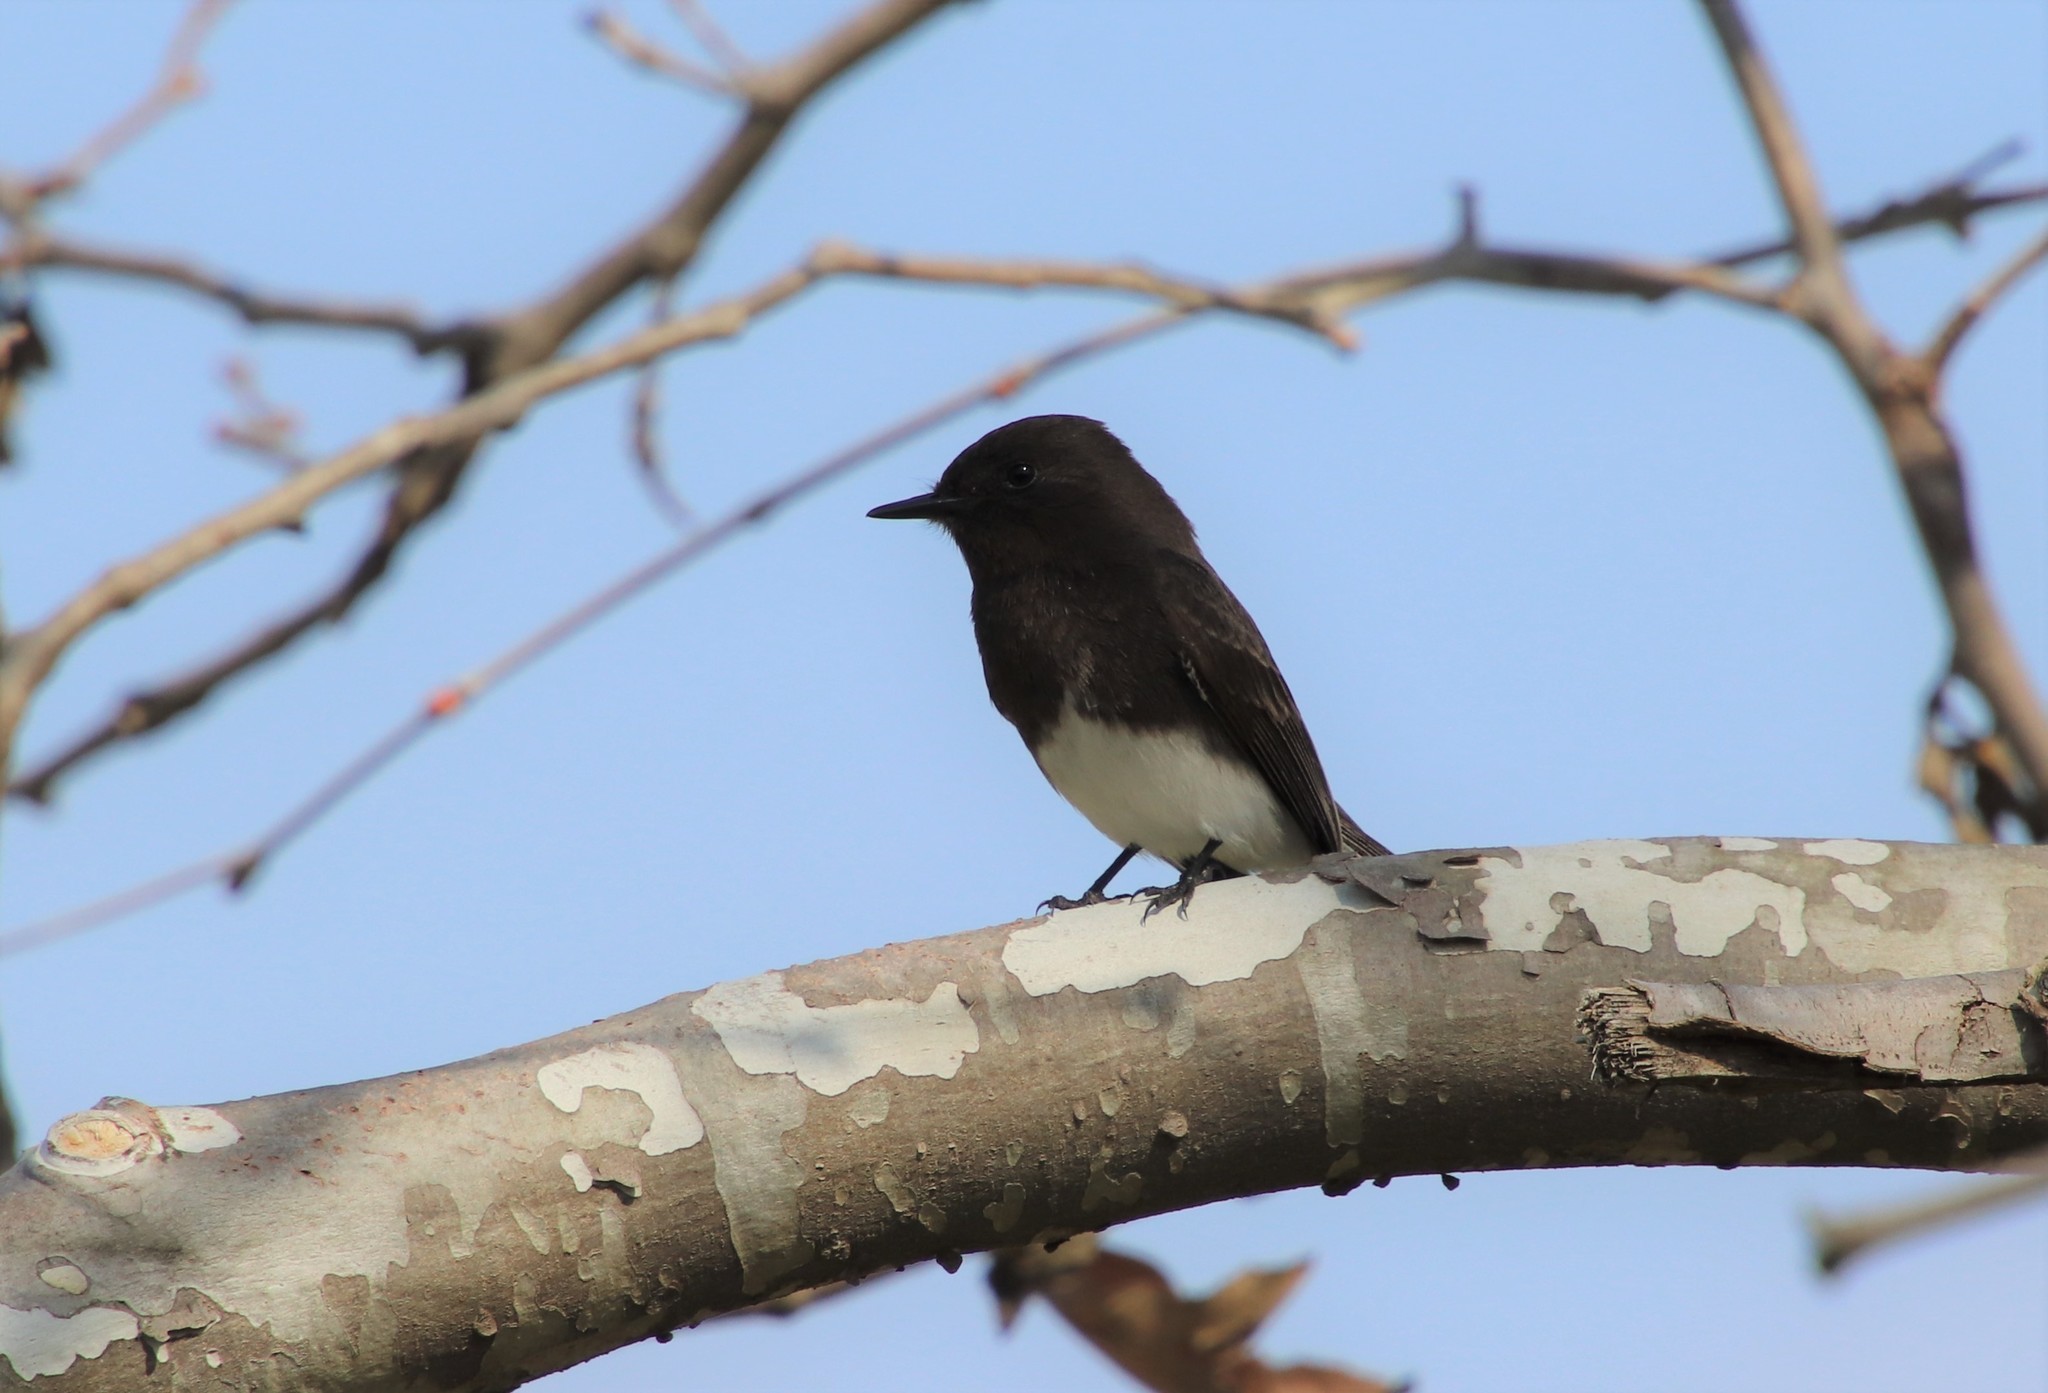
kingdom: Animalia
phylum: Chordata
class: Aves
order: Passeriformes
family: Tyrannidae
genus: Sayornis
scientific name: Sayornis nigricans
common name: Black phoebe
